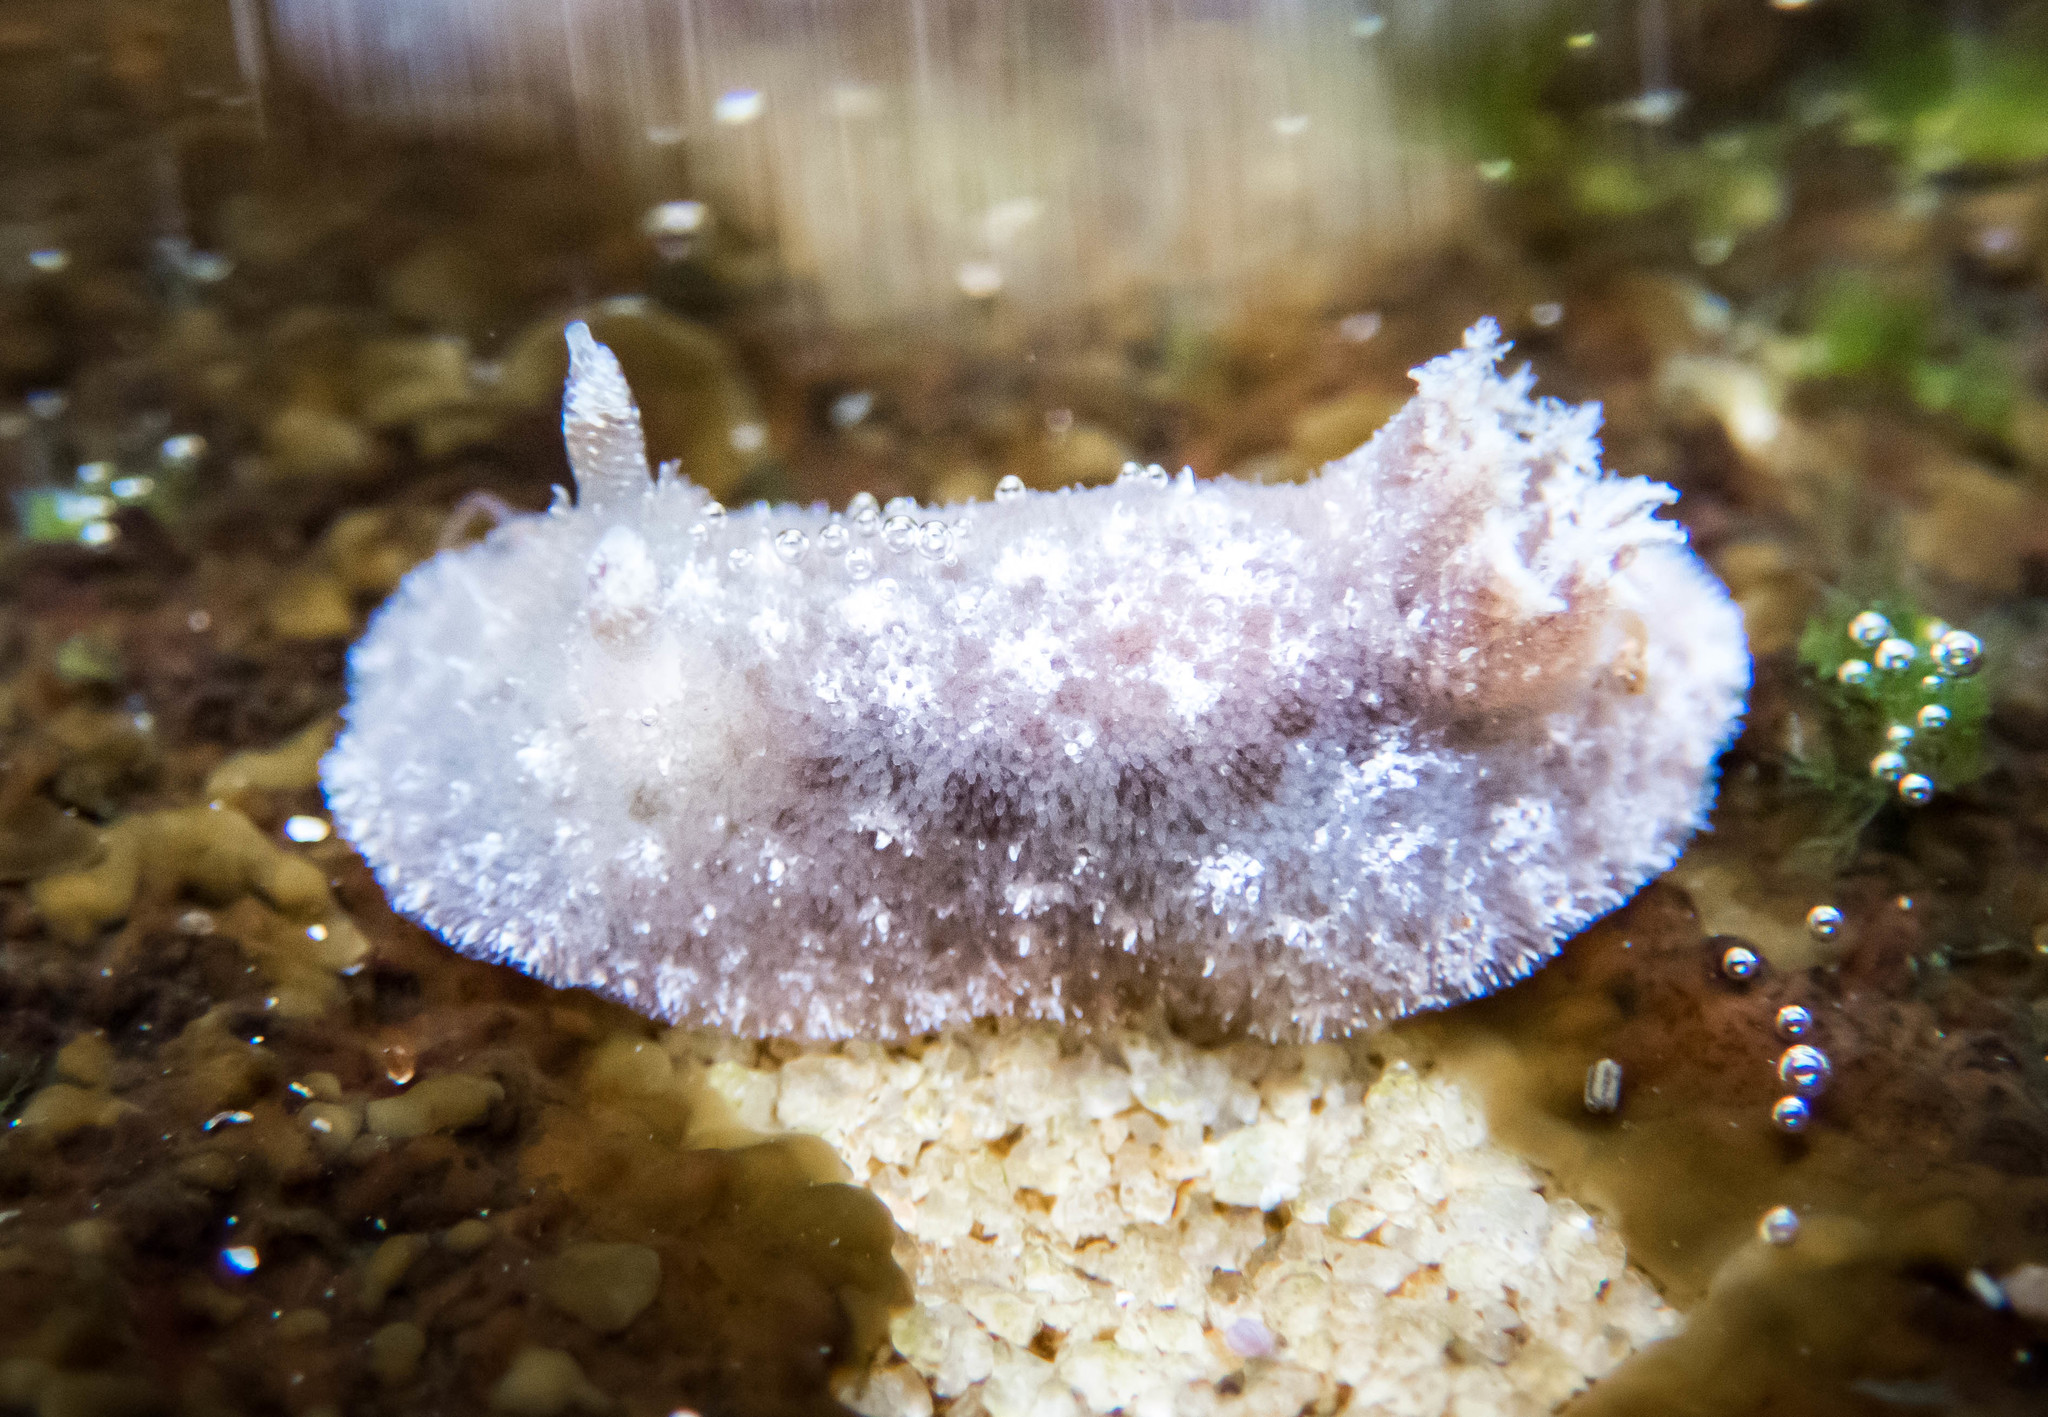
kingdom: Animalia
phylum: Mollusca
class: Gastropoda
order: Nudibranchia
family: Discodorididae
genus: Jorunna
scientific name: Jorunna ramicola
